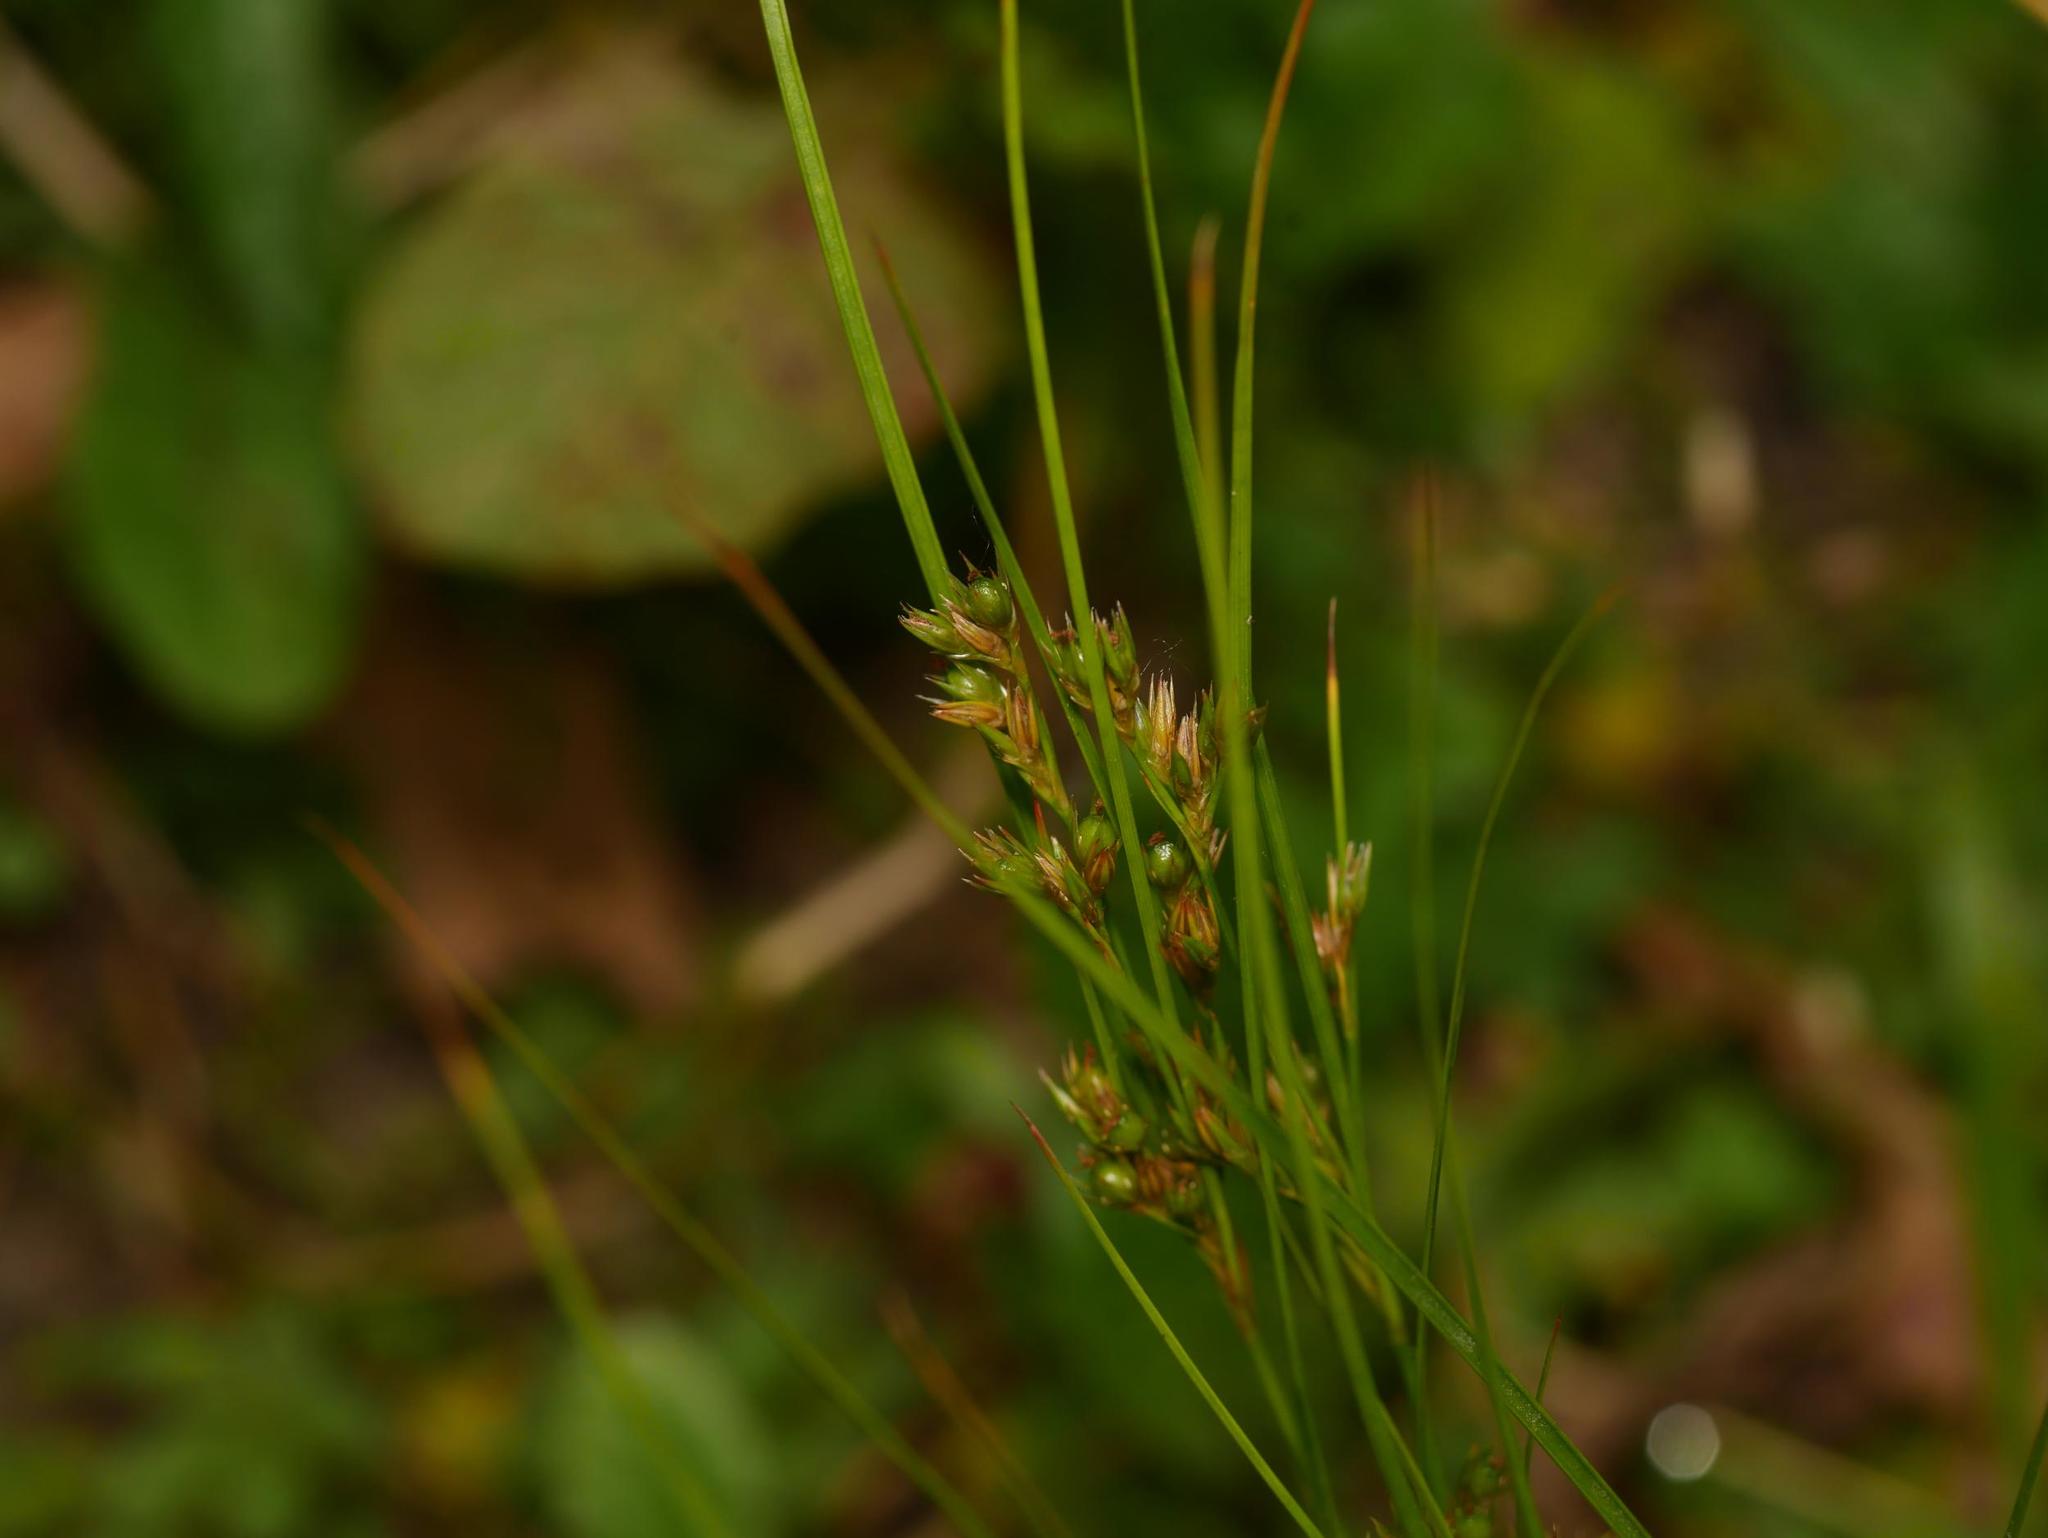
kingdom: Plantae
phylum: Tracheophyta
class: Liliopsida
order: Poales
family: Juncaceae
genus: Juncus
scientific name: Juncus tenuis
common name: Slender rush
